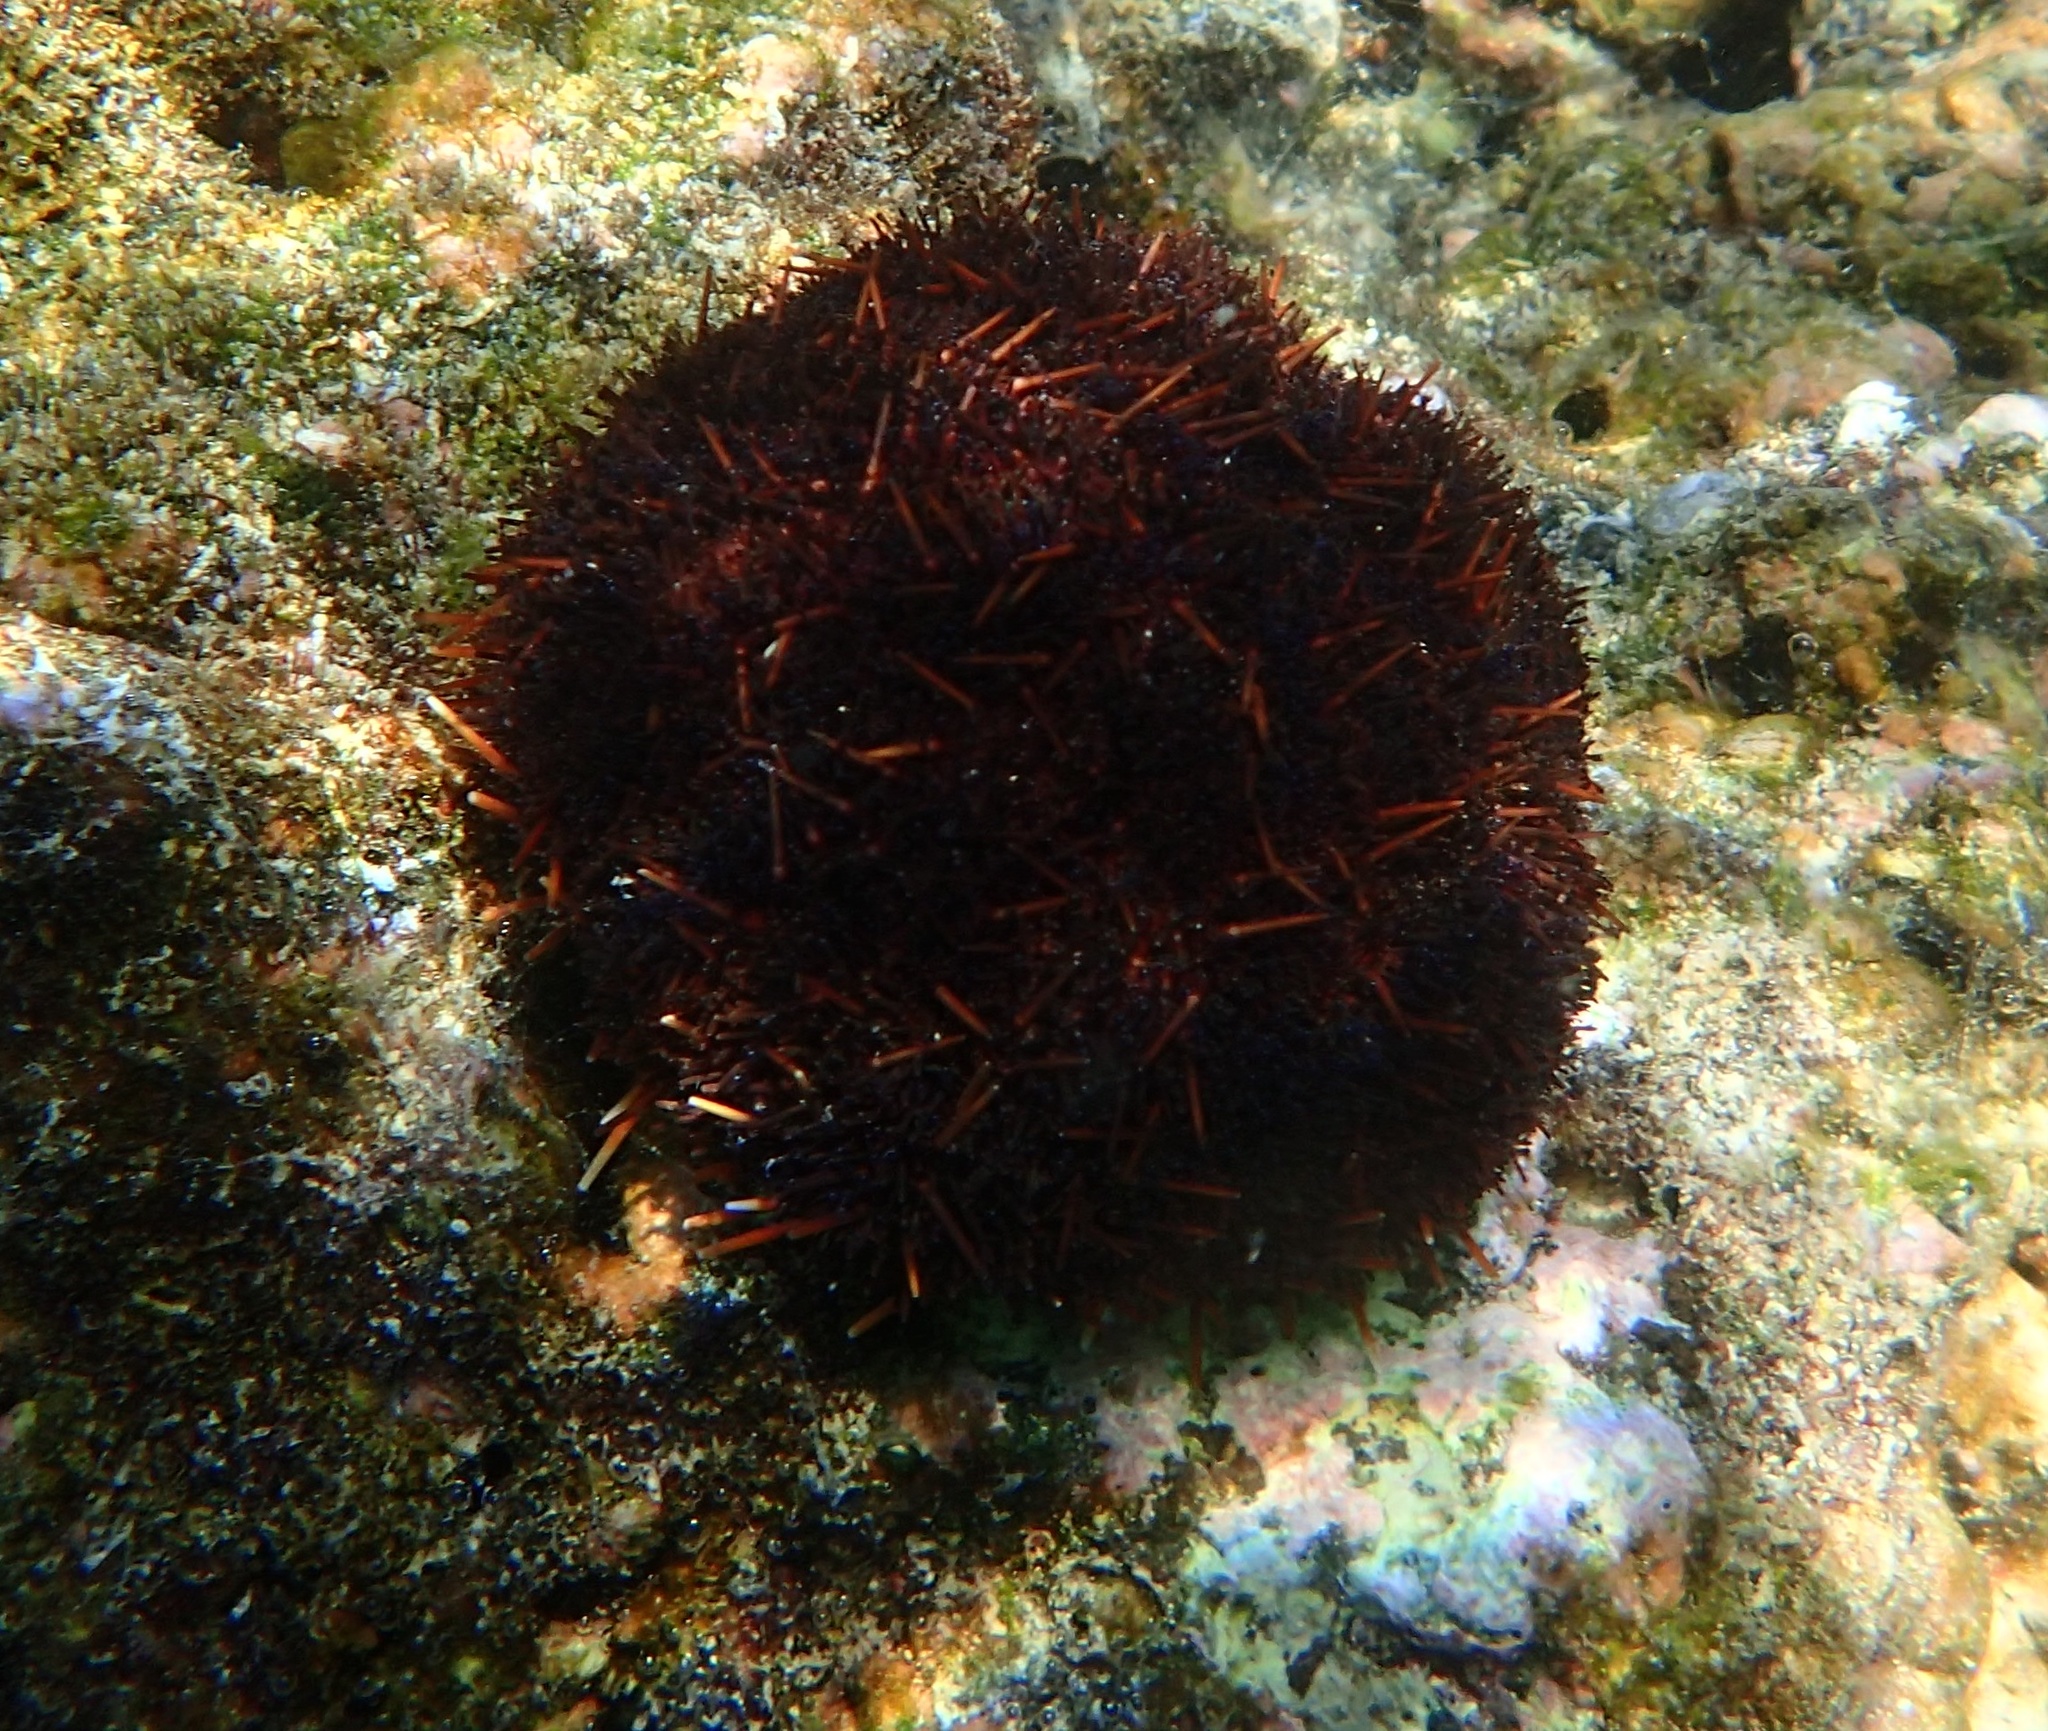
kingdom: Animalia
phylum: Echinodermata
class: Echinoidea
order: Camarodonta
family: Toxopneustidae
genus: Tripneustes
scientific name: Tripneustes gratilla
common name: Bischofsmützenseeigel
